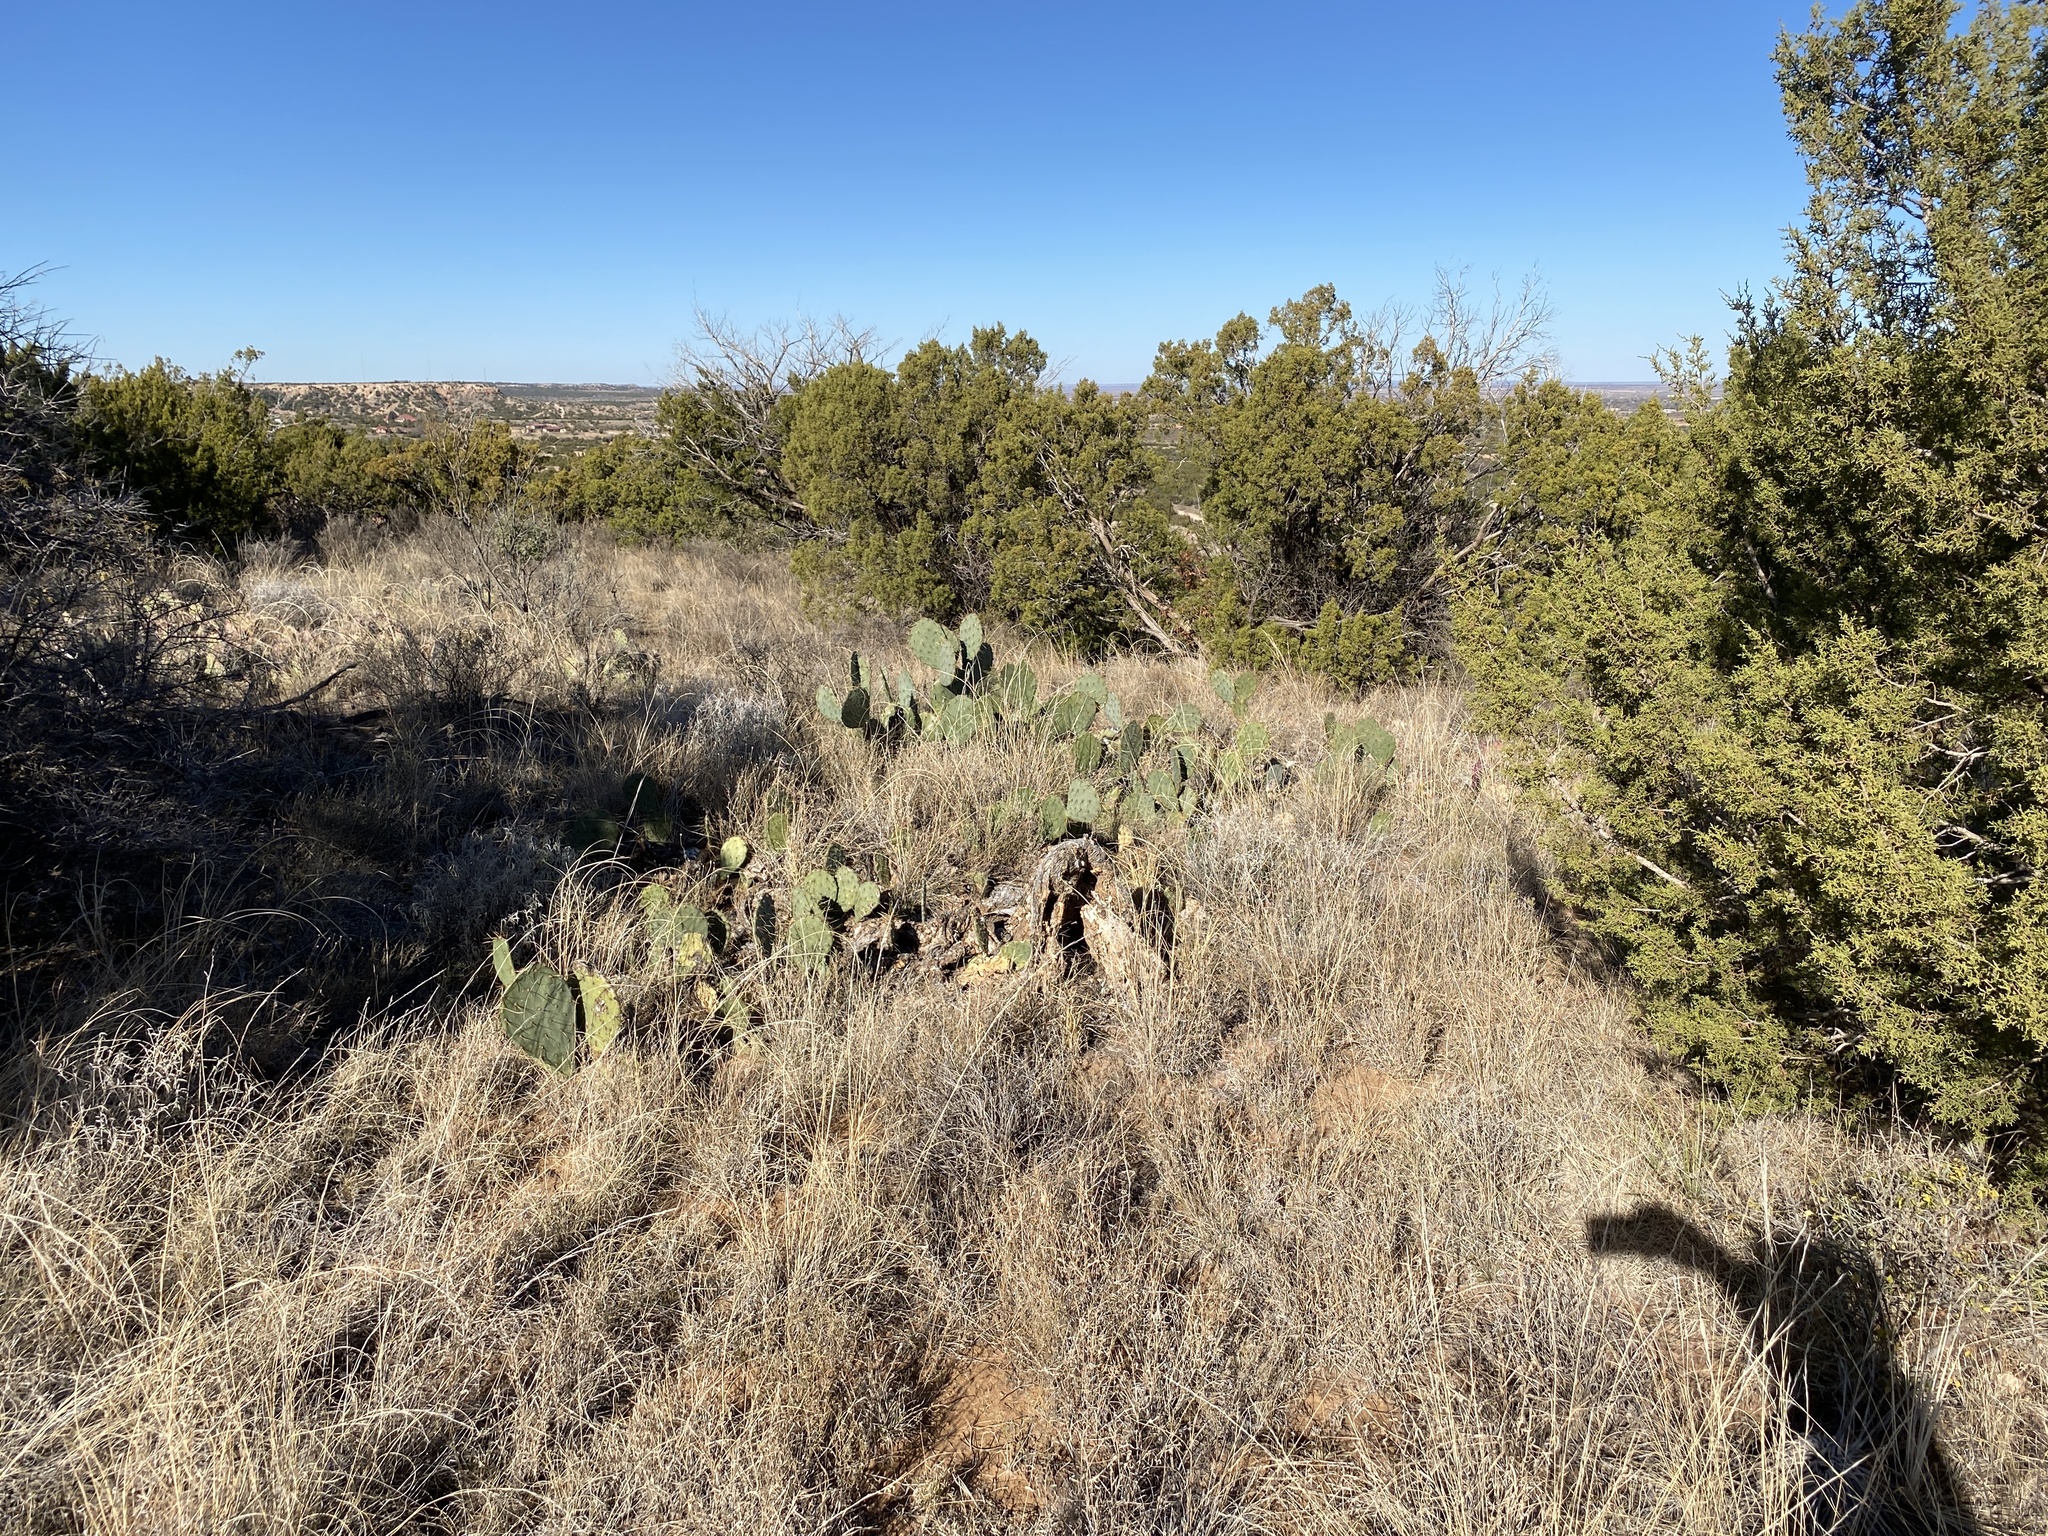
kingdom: Plantae
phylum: Tracheophyta
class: Magnoliopsida
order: Caryophyllales
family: Cactaceae
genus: Opuntia
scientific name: Opuntia orbiculata
